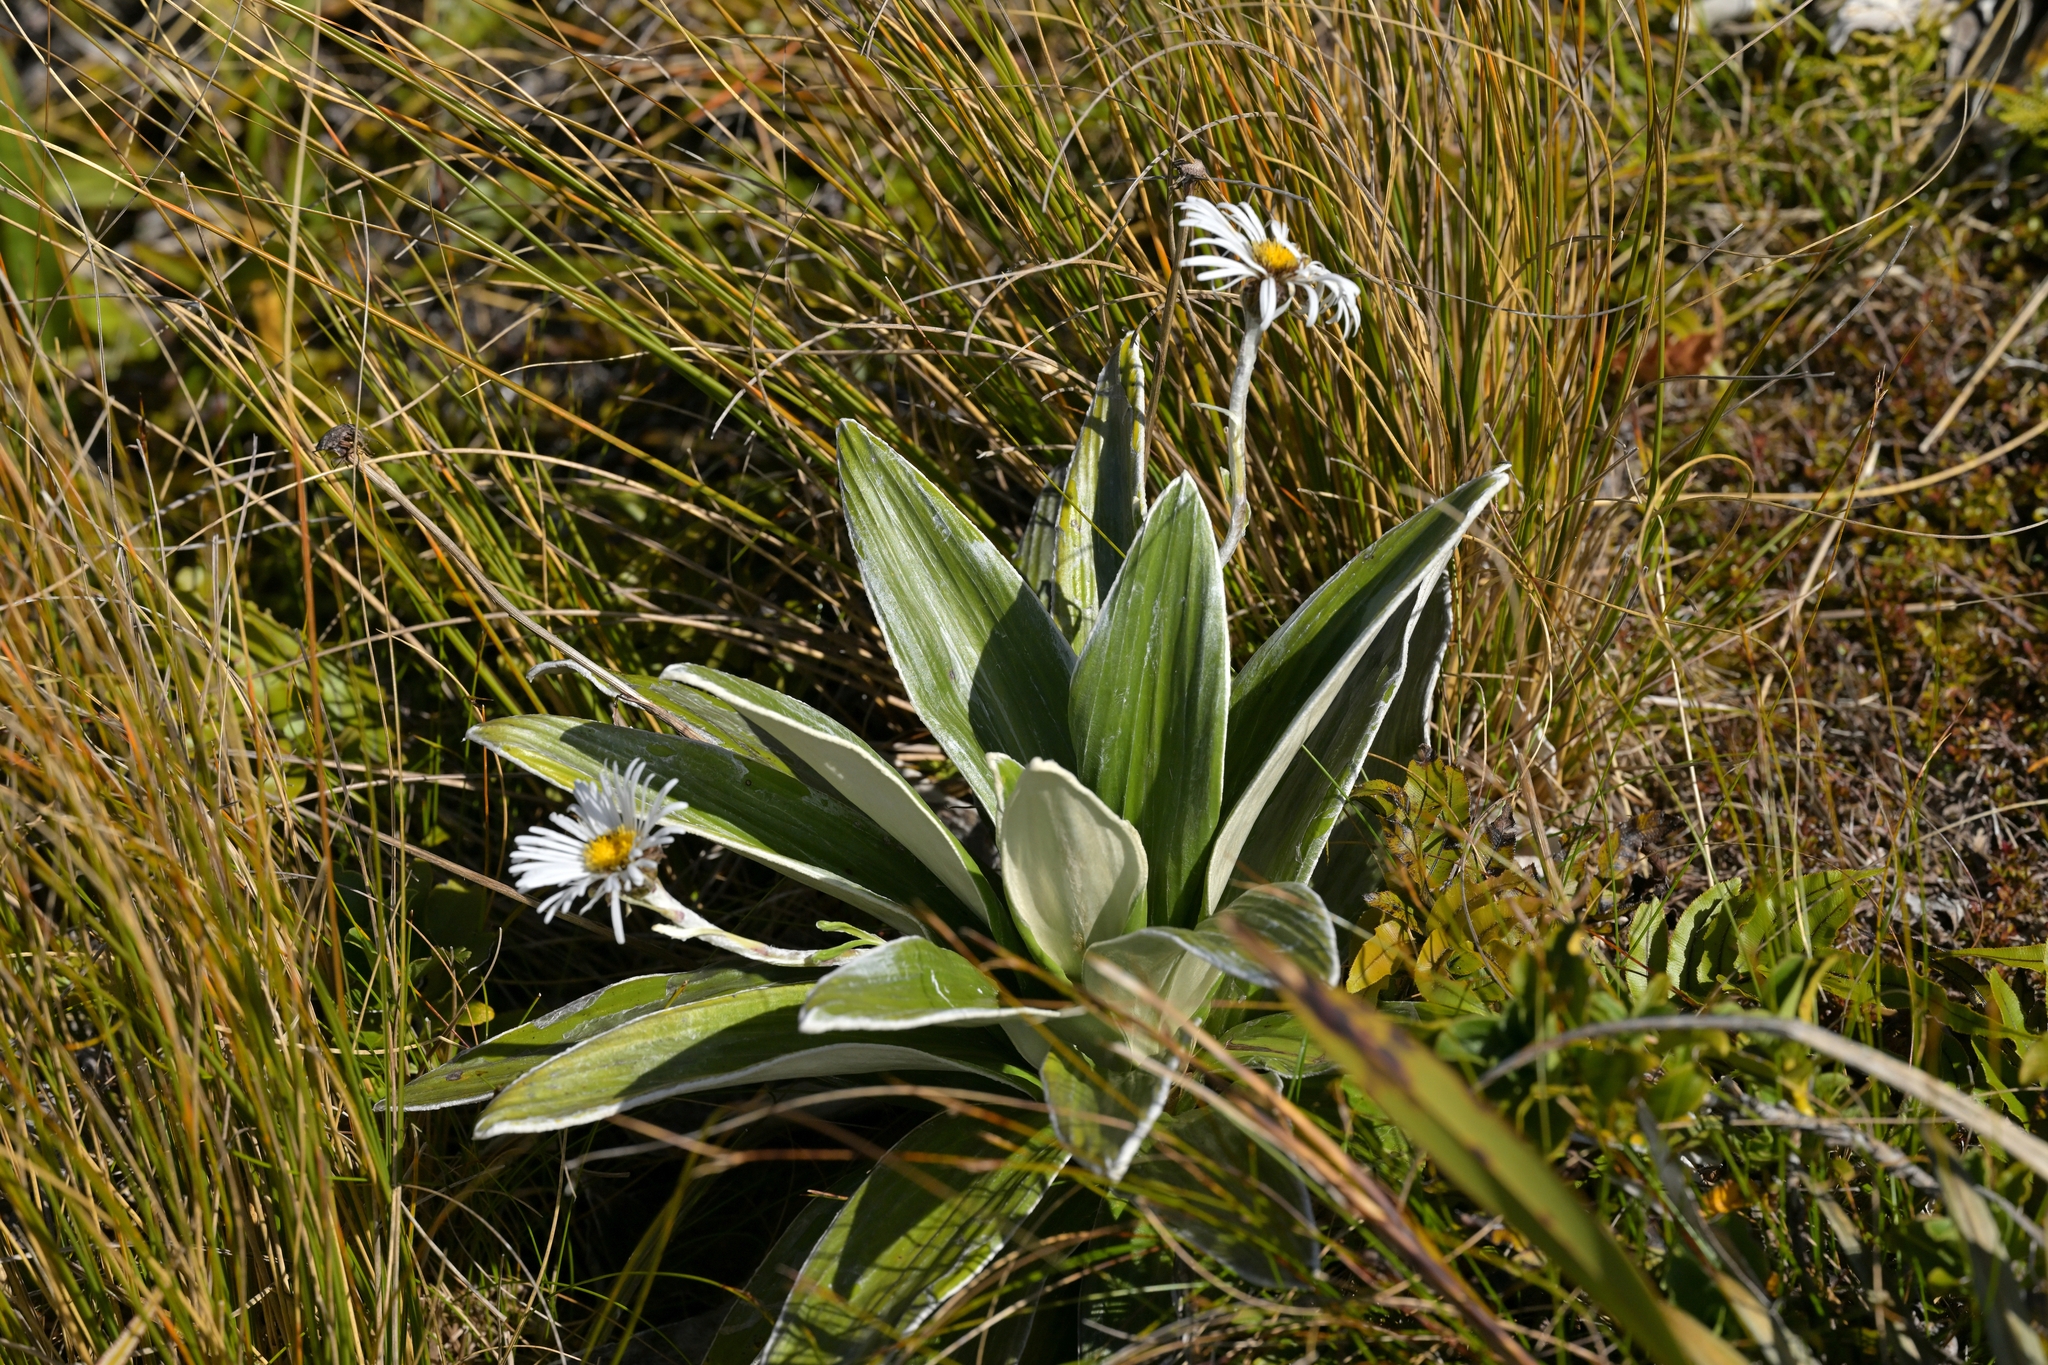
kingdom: Plantae
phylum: Tracheophyta
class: Magnoliopsida
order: Asterales
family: Asteraceae
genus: Celmisia
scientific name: Celmisia semicordata
